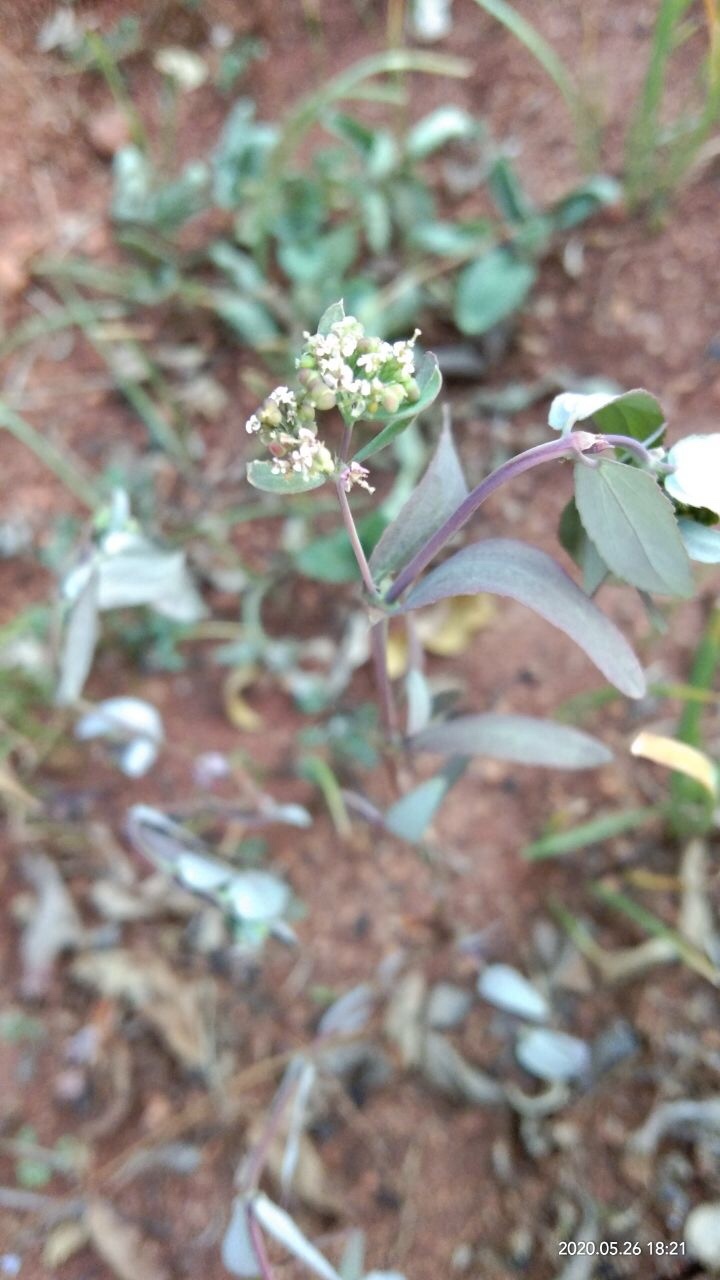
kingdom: Plantae
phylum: Tracheophyta
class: Magnoliopsida
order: Malpighiales
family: Euphorbiaceae
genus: Euphorbia
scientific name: Euphorbia hypericifolia
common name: Graceful sandmat
